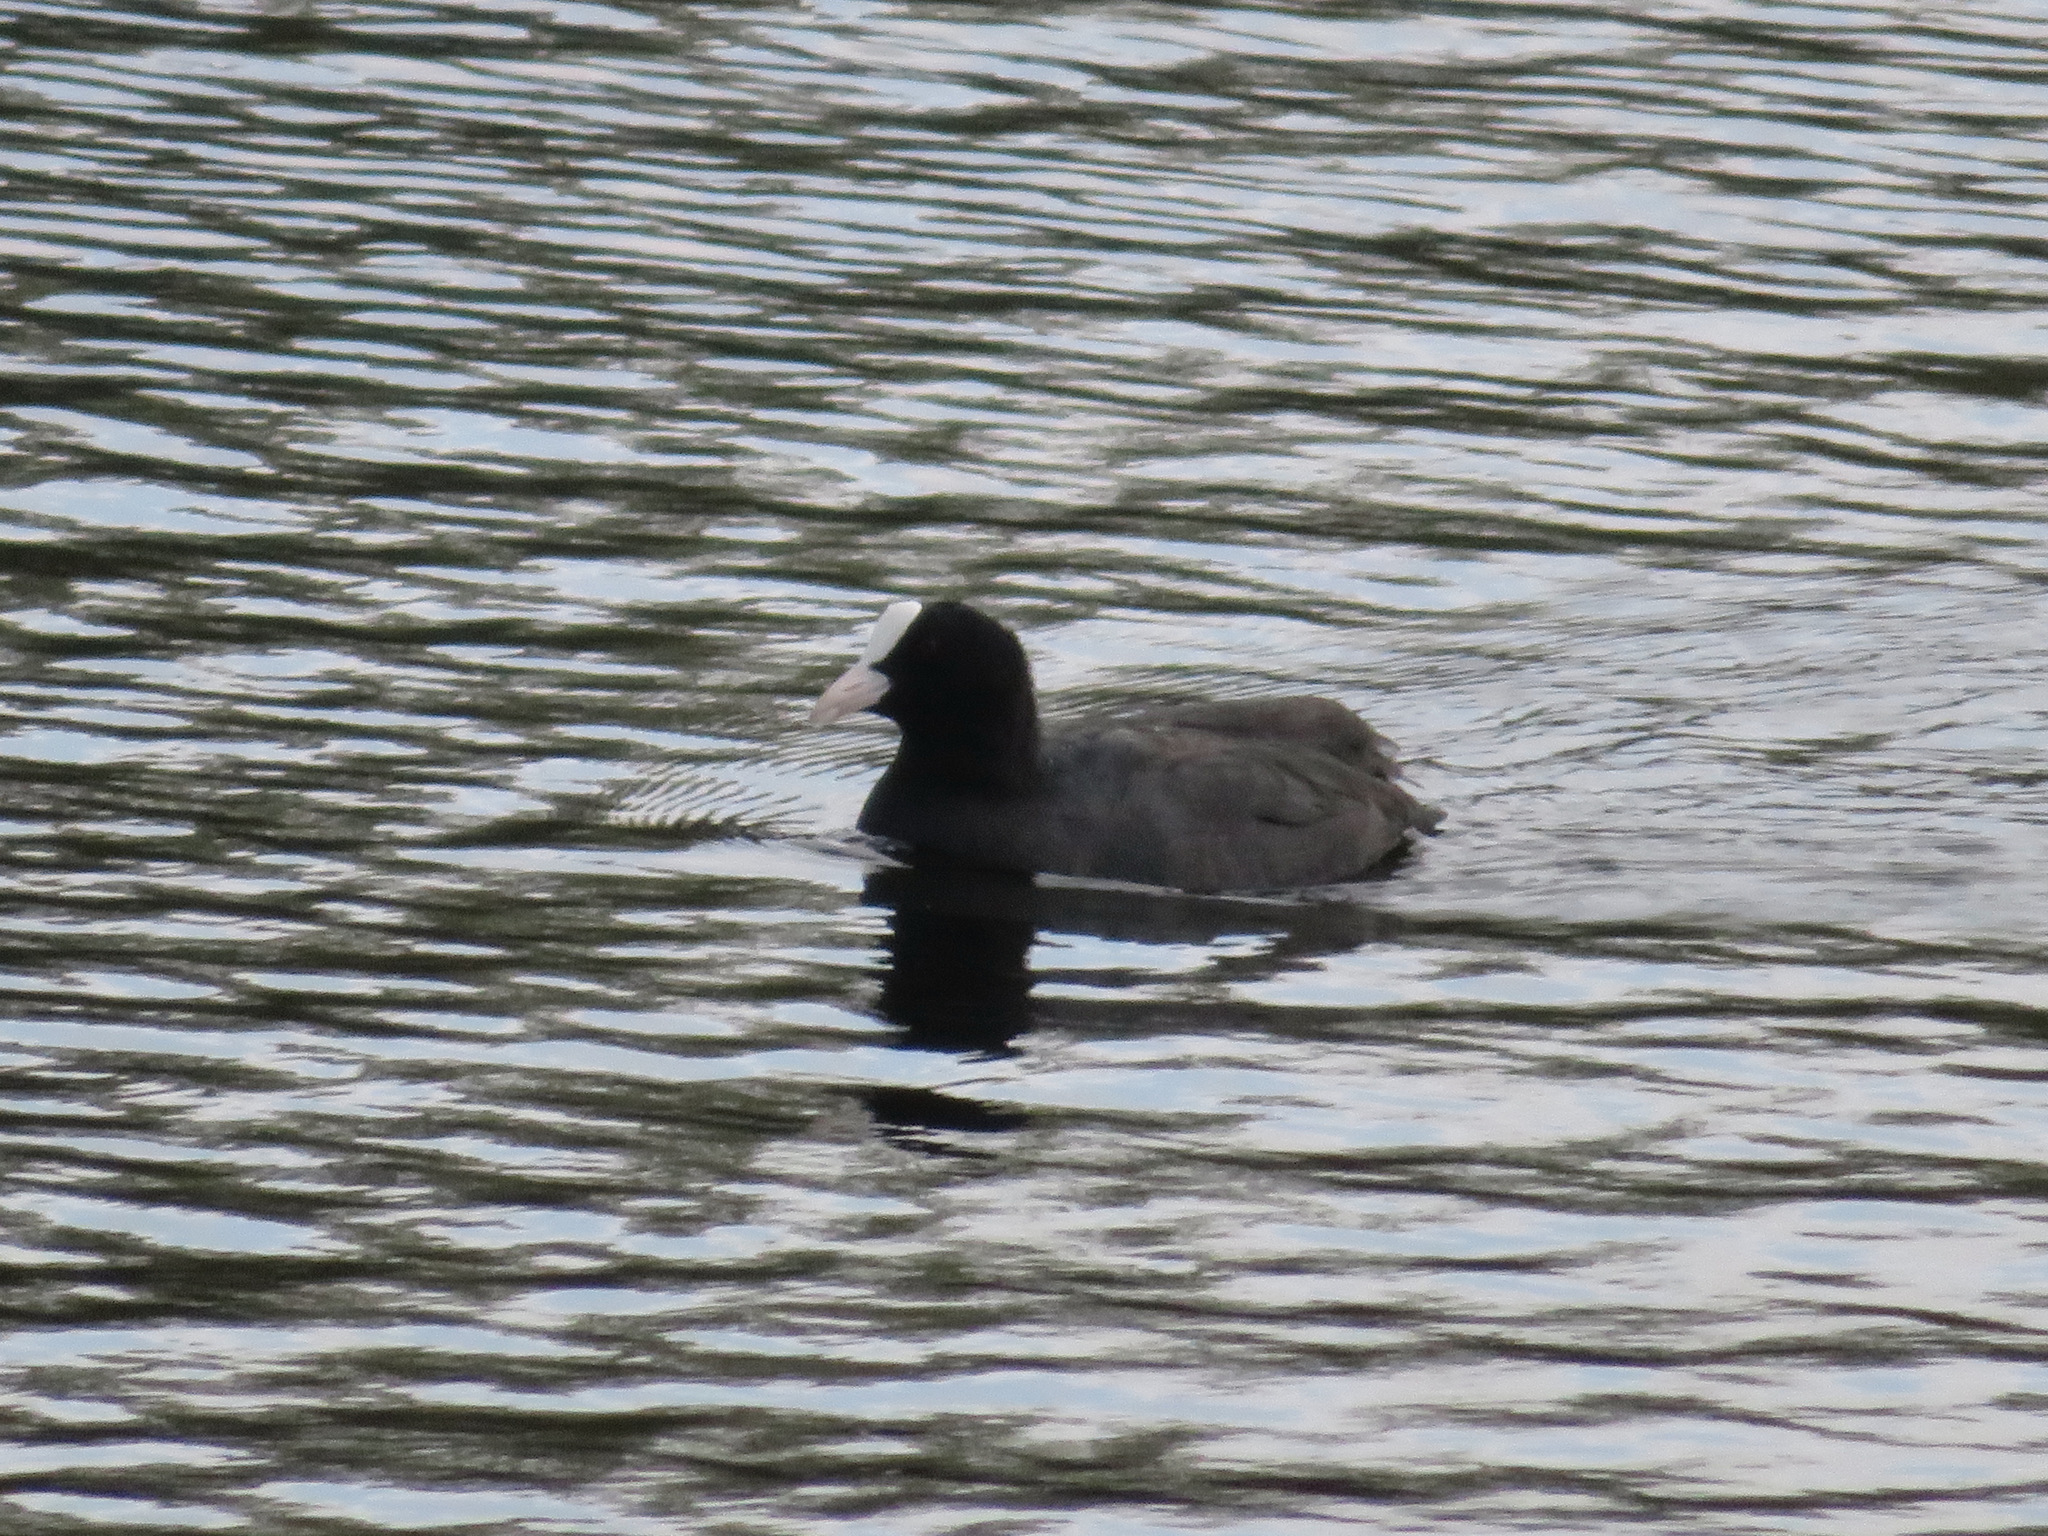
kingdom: Animalia
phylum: Chordata
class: Aves
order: Gruiformes
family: Rallidae
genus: Fulica
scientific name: Fulica atra
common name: Eurasian coot
